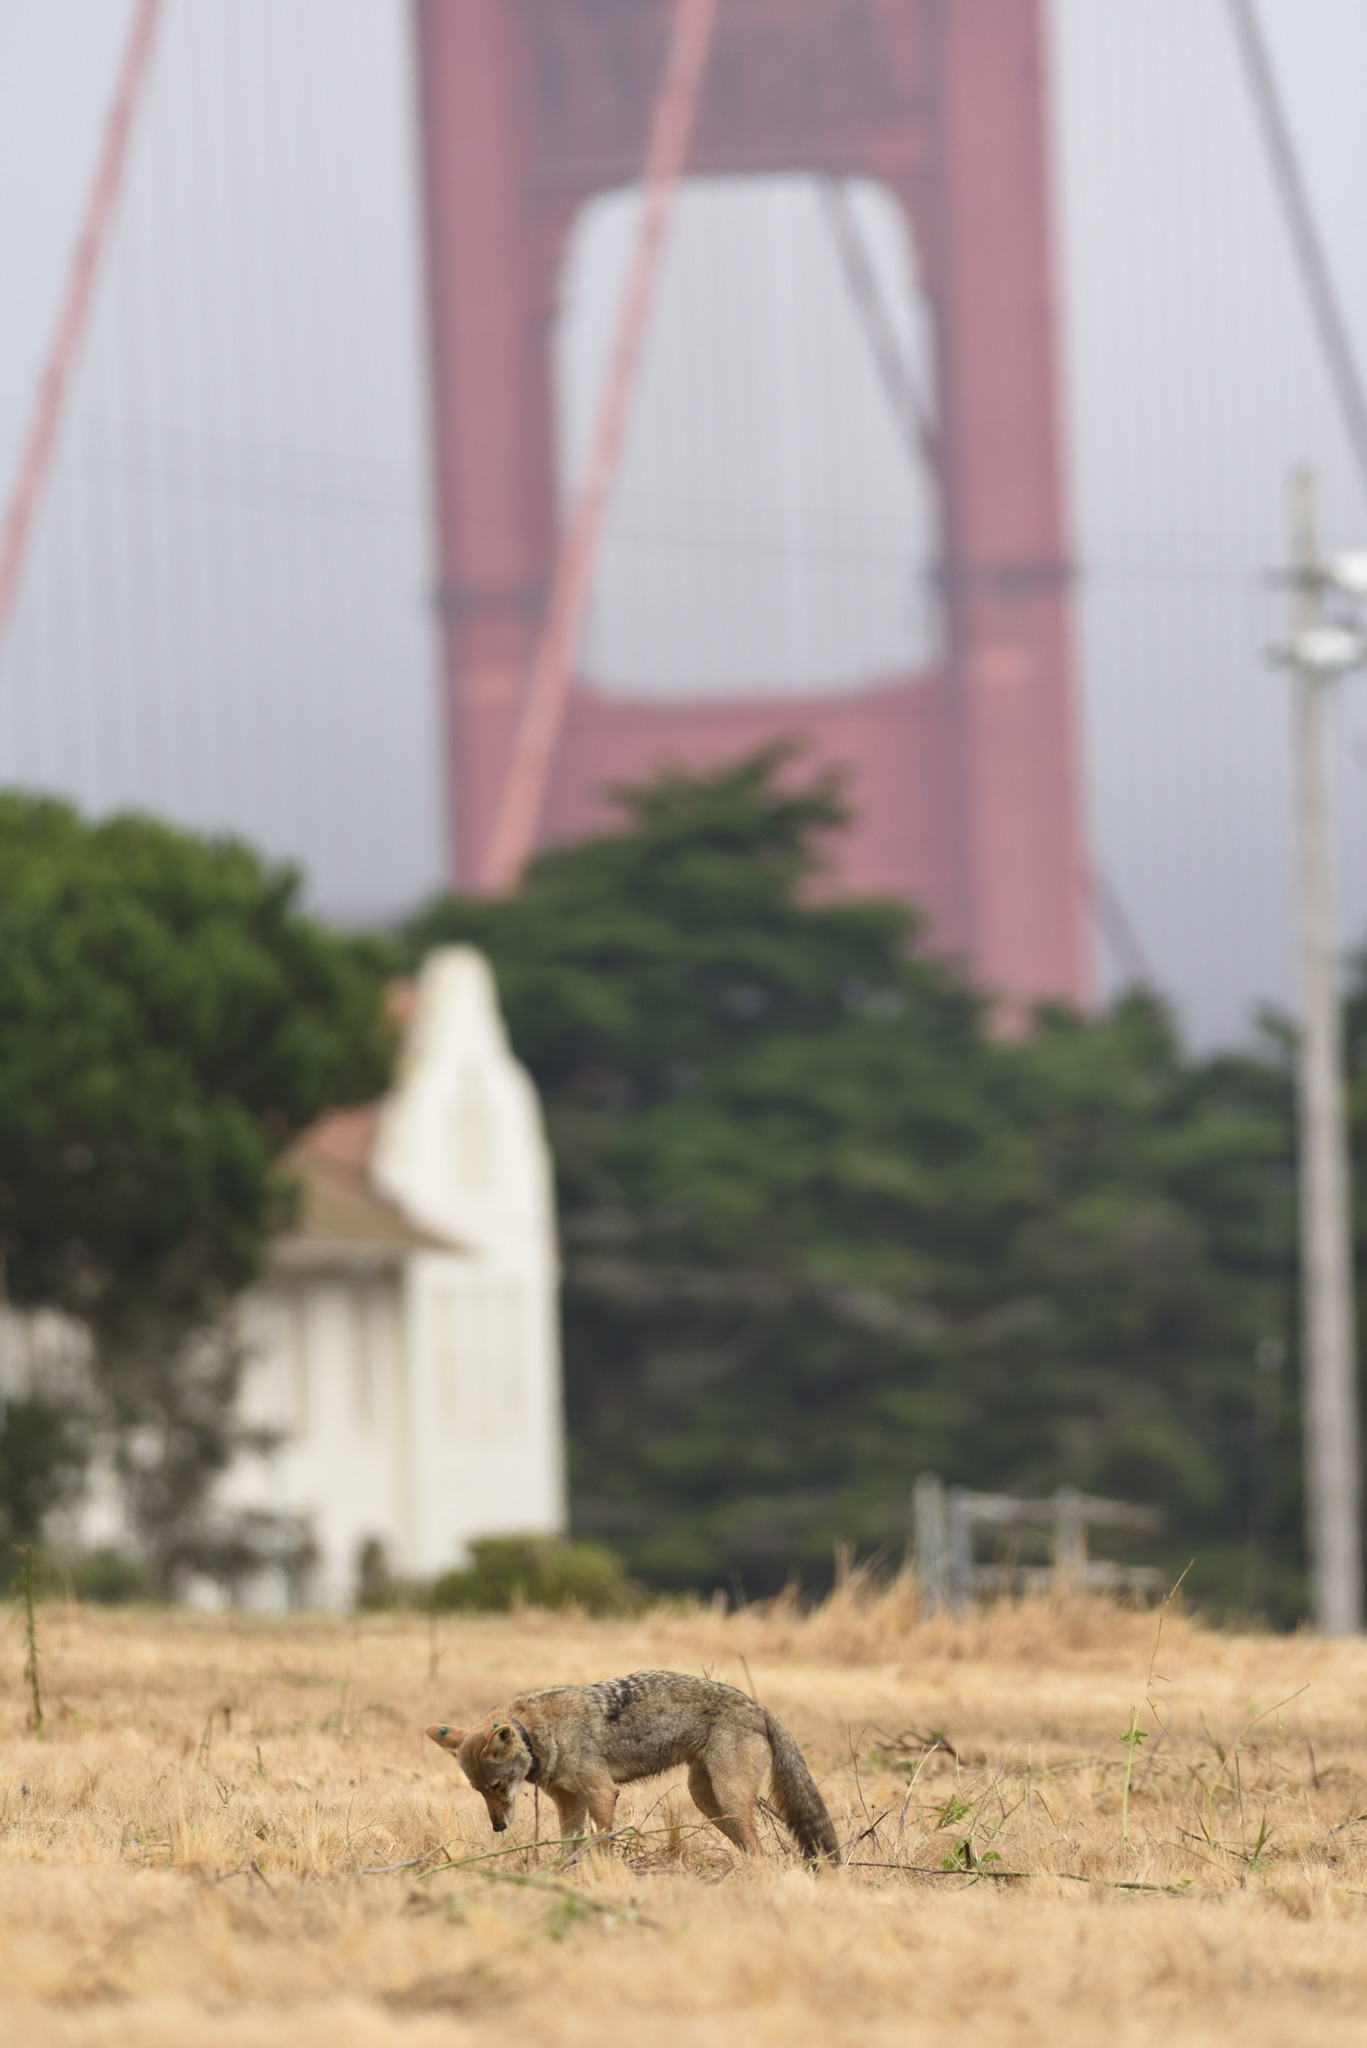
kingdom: Animalia
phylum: Chordata
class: Mammalia
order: Carnivora
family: Canidae
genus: Canis
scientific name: Canis latrans
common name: Coyote
